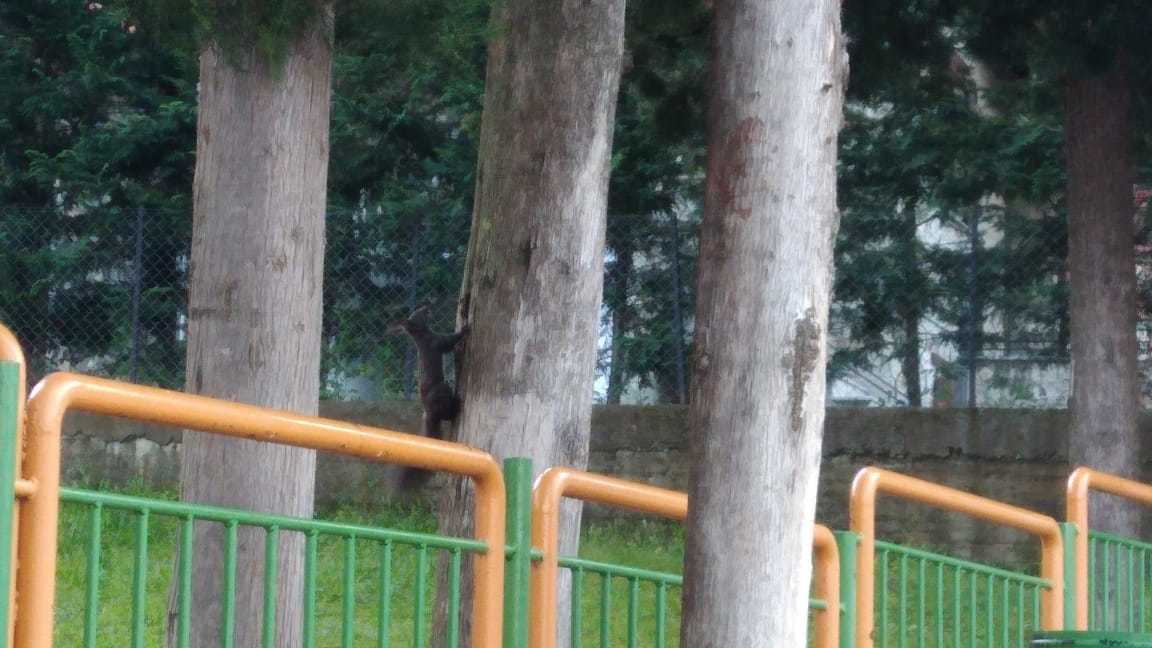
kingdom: Animalia
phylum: Chordata
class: Mammalia
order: Rodentia
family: Sciuridae
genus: Sciurus
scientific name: Sciurus vulgaris
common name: Eurasian red squirrel
